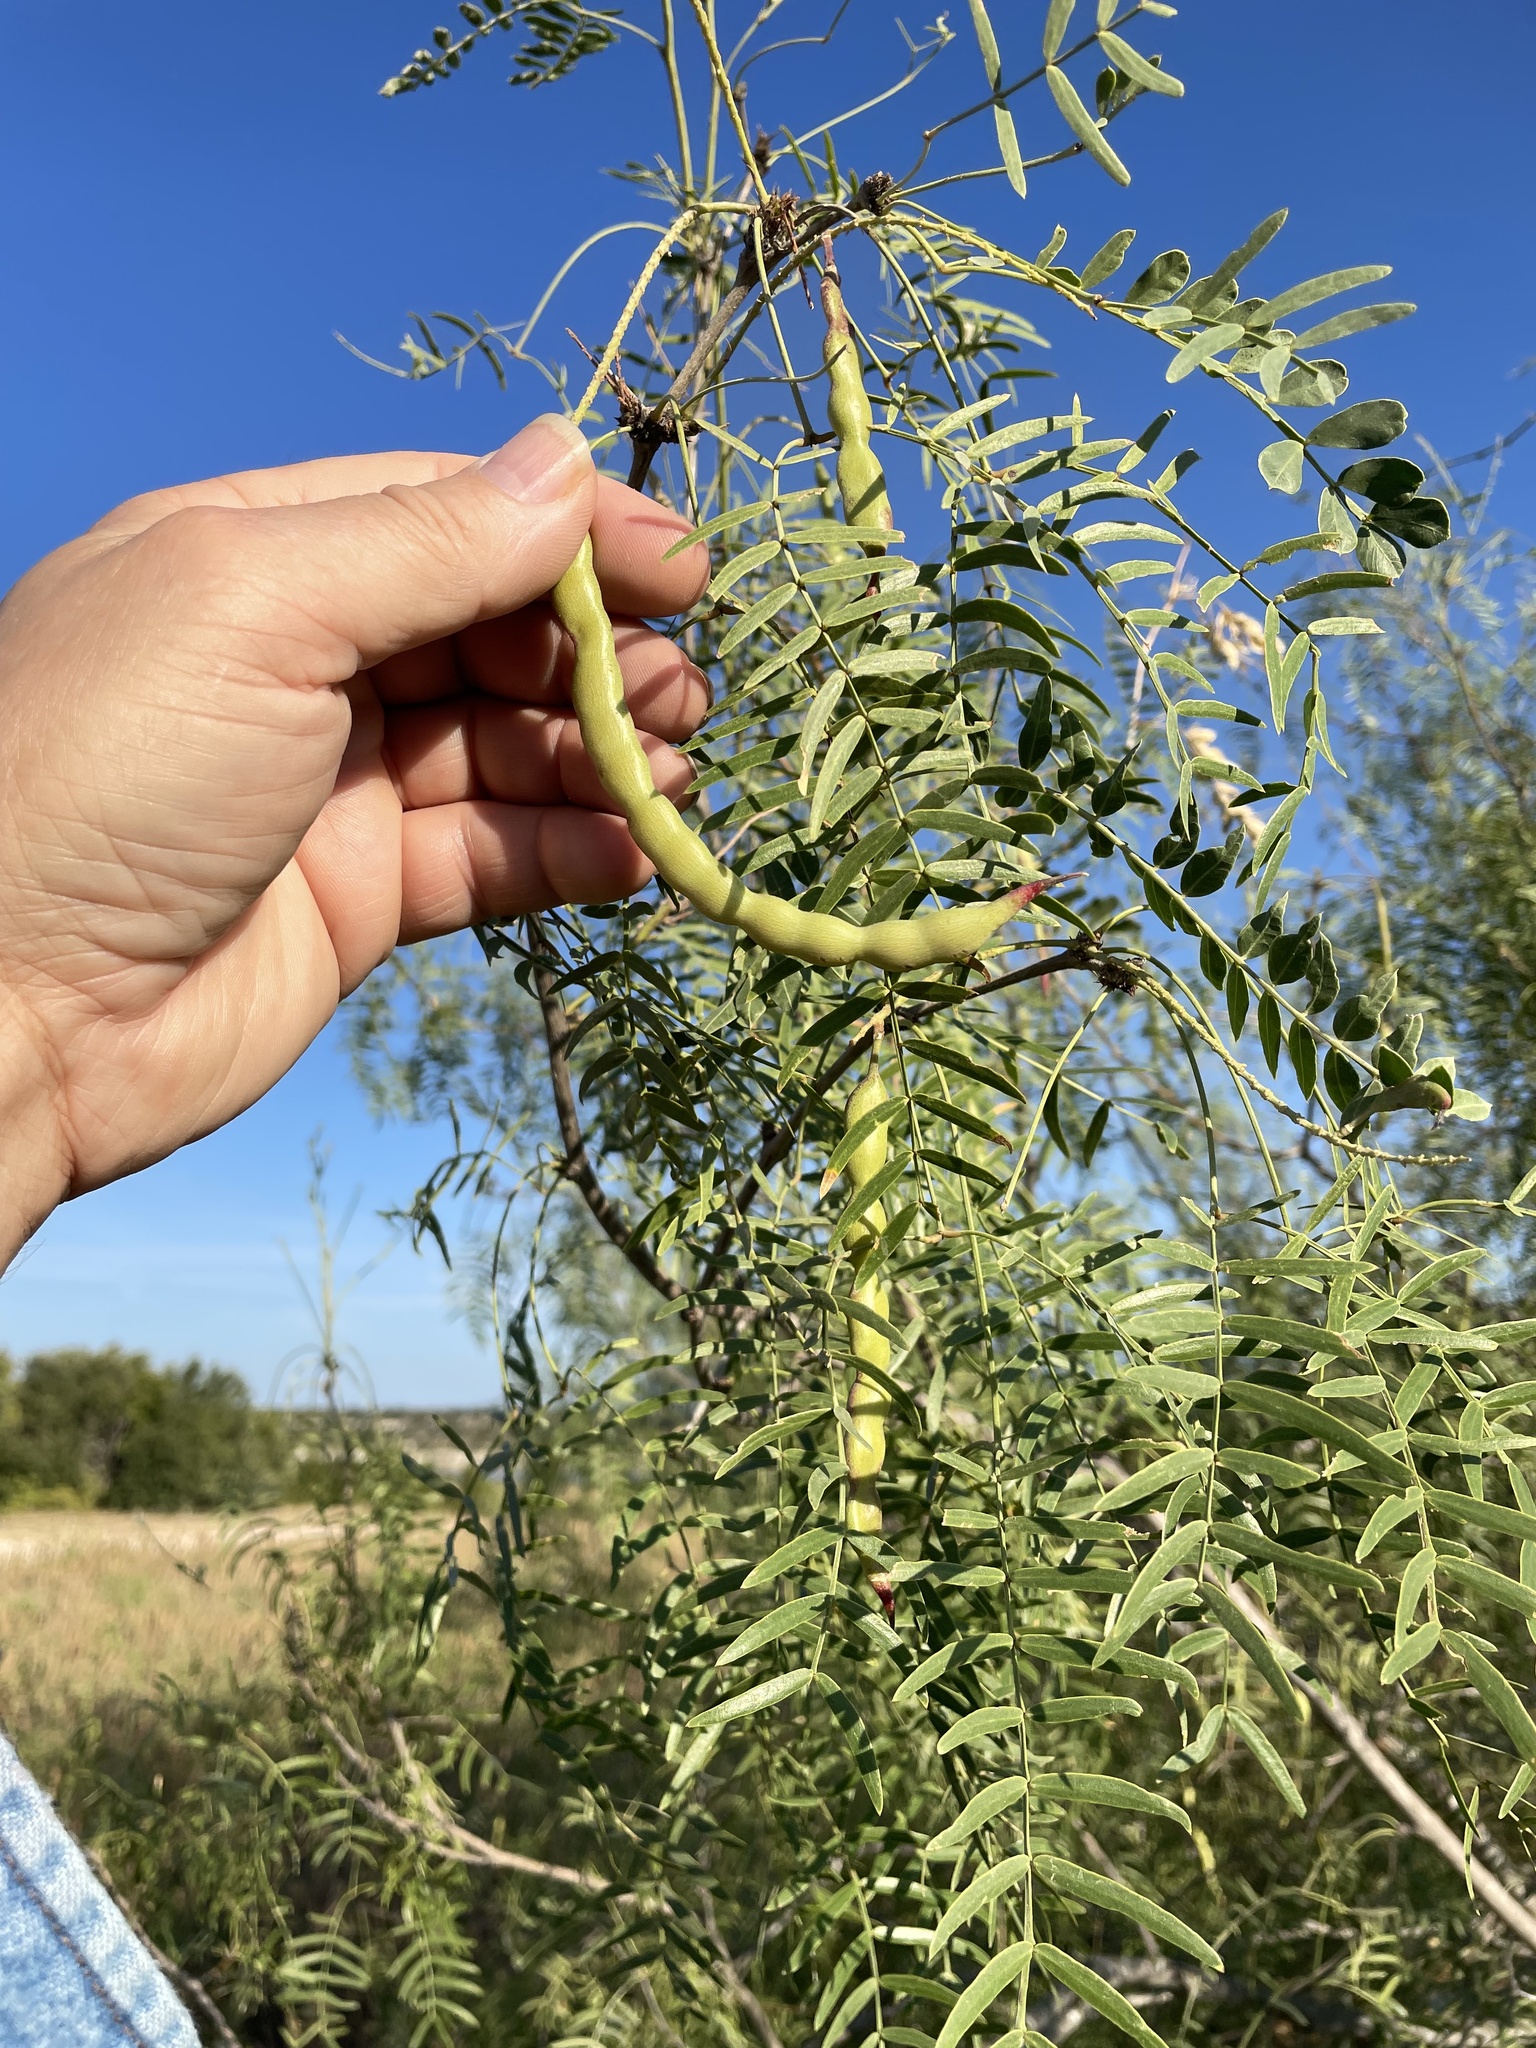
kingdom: Plantae
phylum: Tracheophyta
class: Magnoliopsida
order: Fabales
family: Fabaceae
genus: Prosopis
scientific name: Prosopis glandulosa
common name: Honey mesquite
